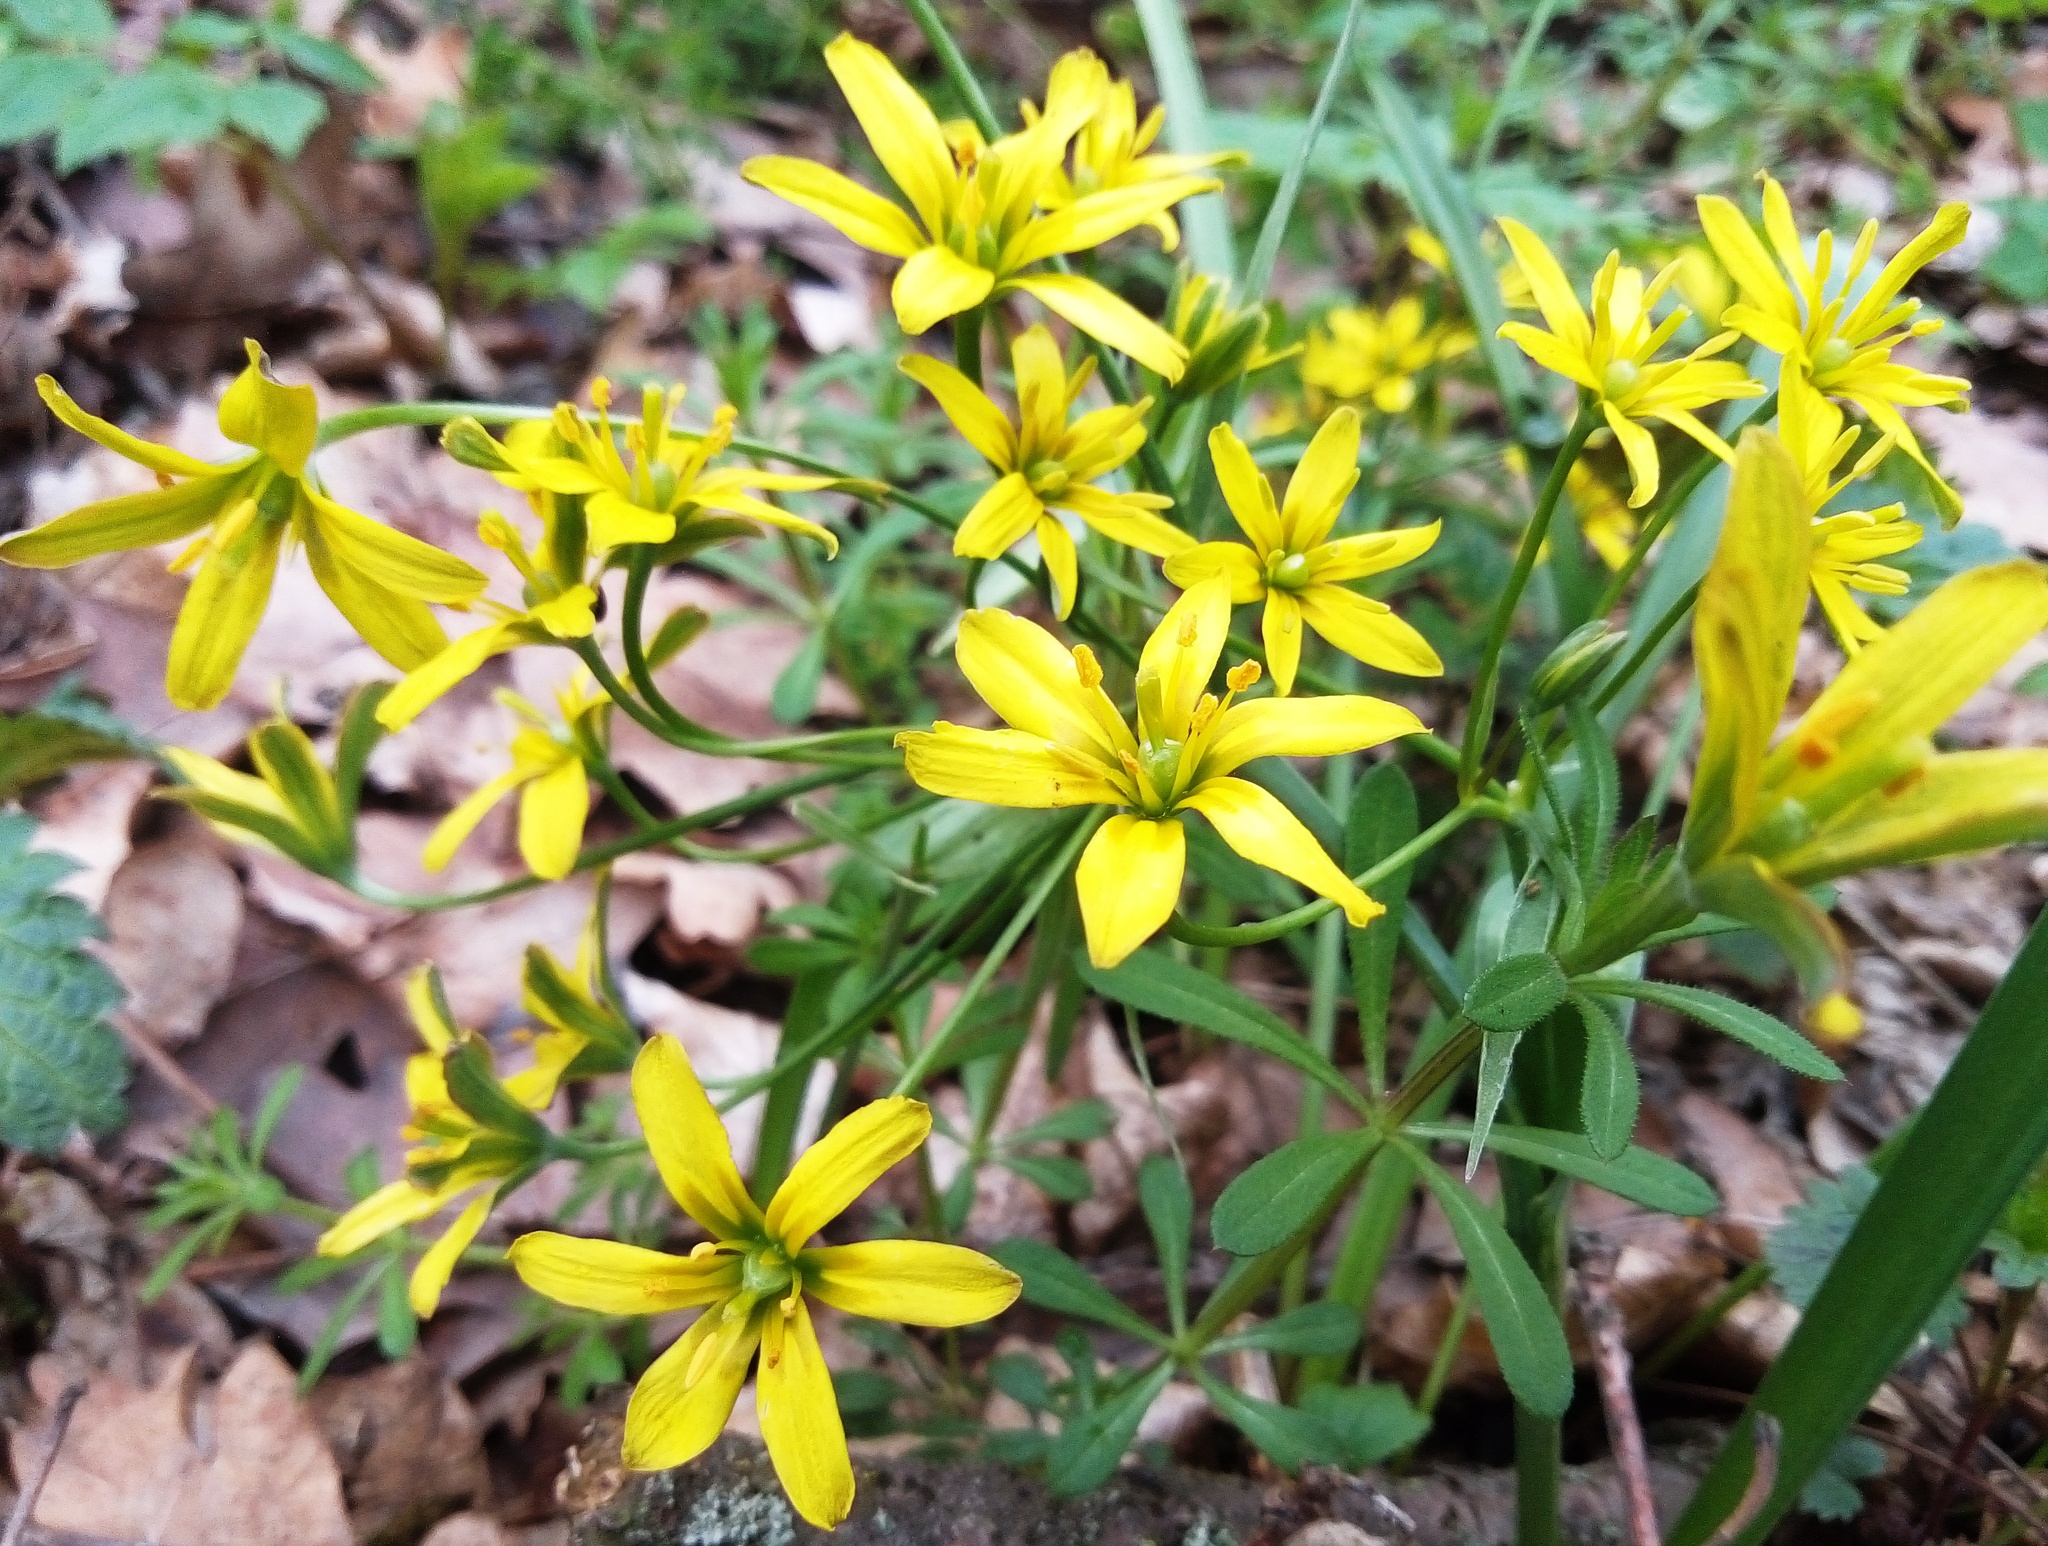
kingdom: Plantae
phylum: Tracheophyta
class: Liliopsida
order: Liliales
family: Liliaceae
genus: Gagea
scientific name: Gagea lutea
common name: Yellow star-of-bethlehem
